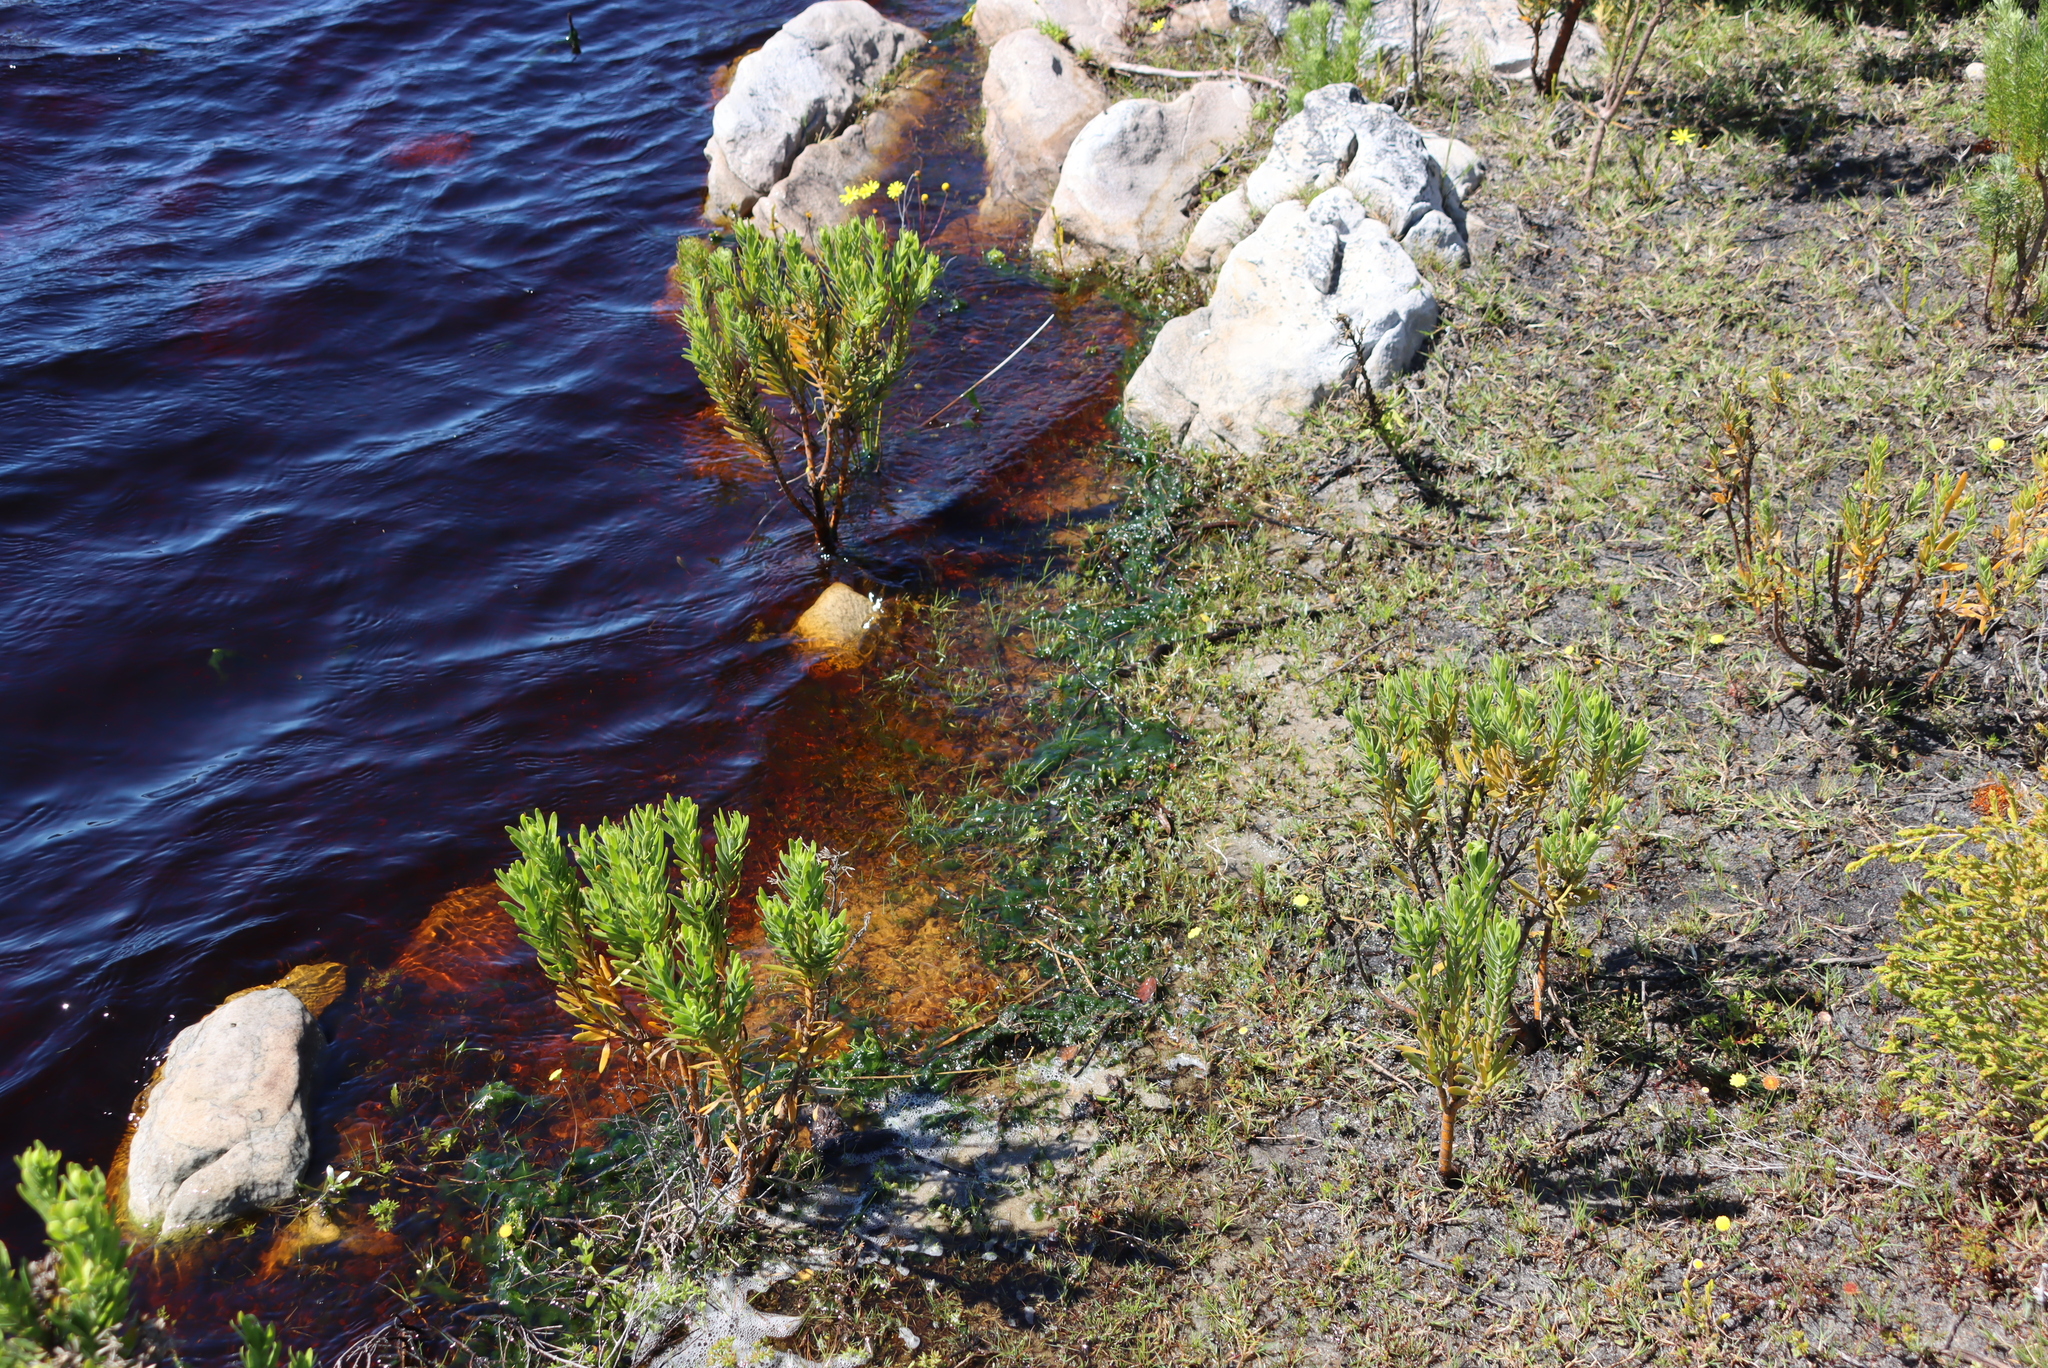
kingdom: Plantae
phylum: Tracheophyta
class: Magnoliopsida
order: Gentianales
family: Gentianaceae
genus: Orphium
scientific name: Orphium frutescens
